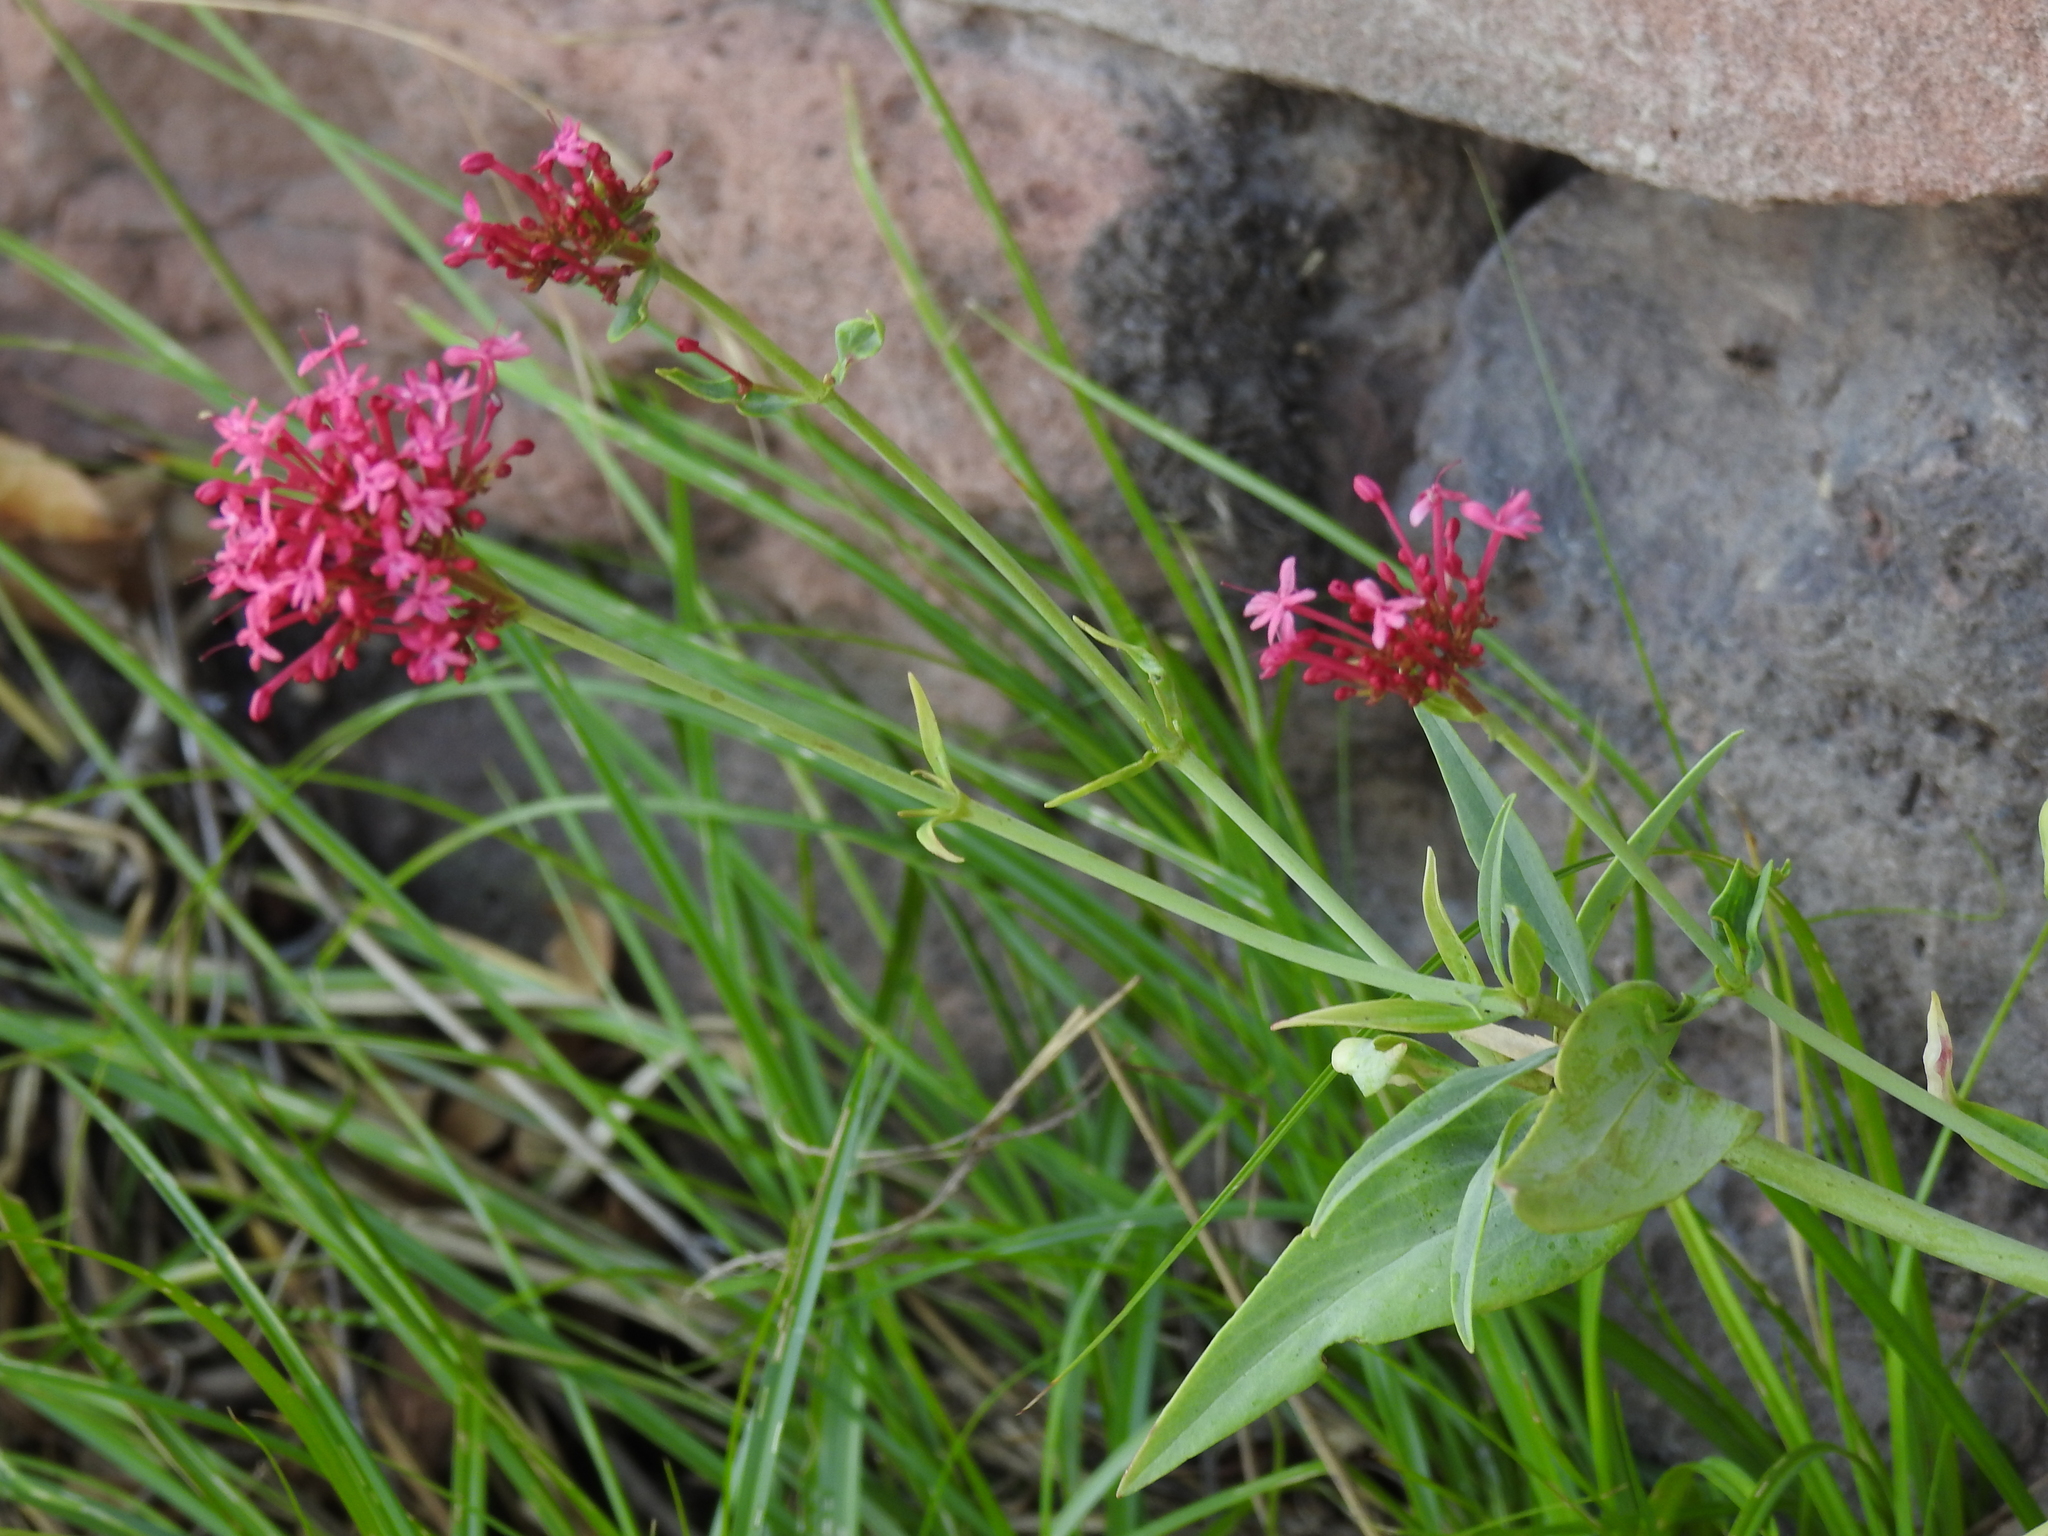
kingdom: Plantae
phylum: Tracheophyta
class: Magnoliopsida
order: Dipsacales
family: Caprifoliaceae
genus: Centranthus
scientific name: Centranthus ruber
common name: Red valerian
